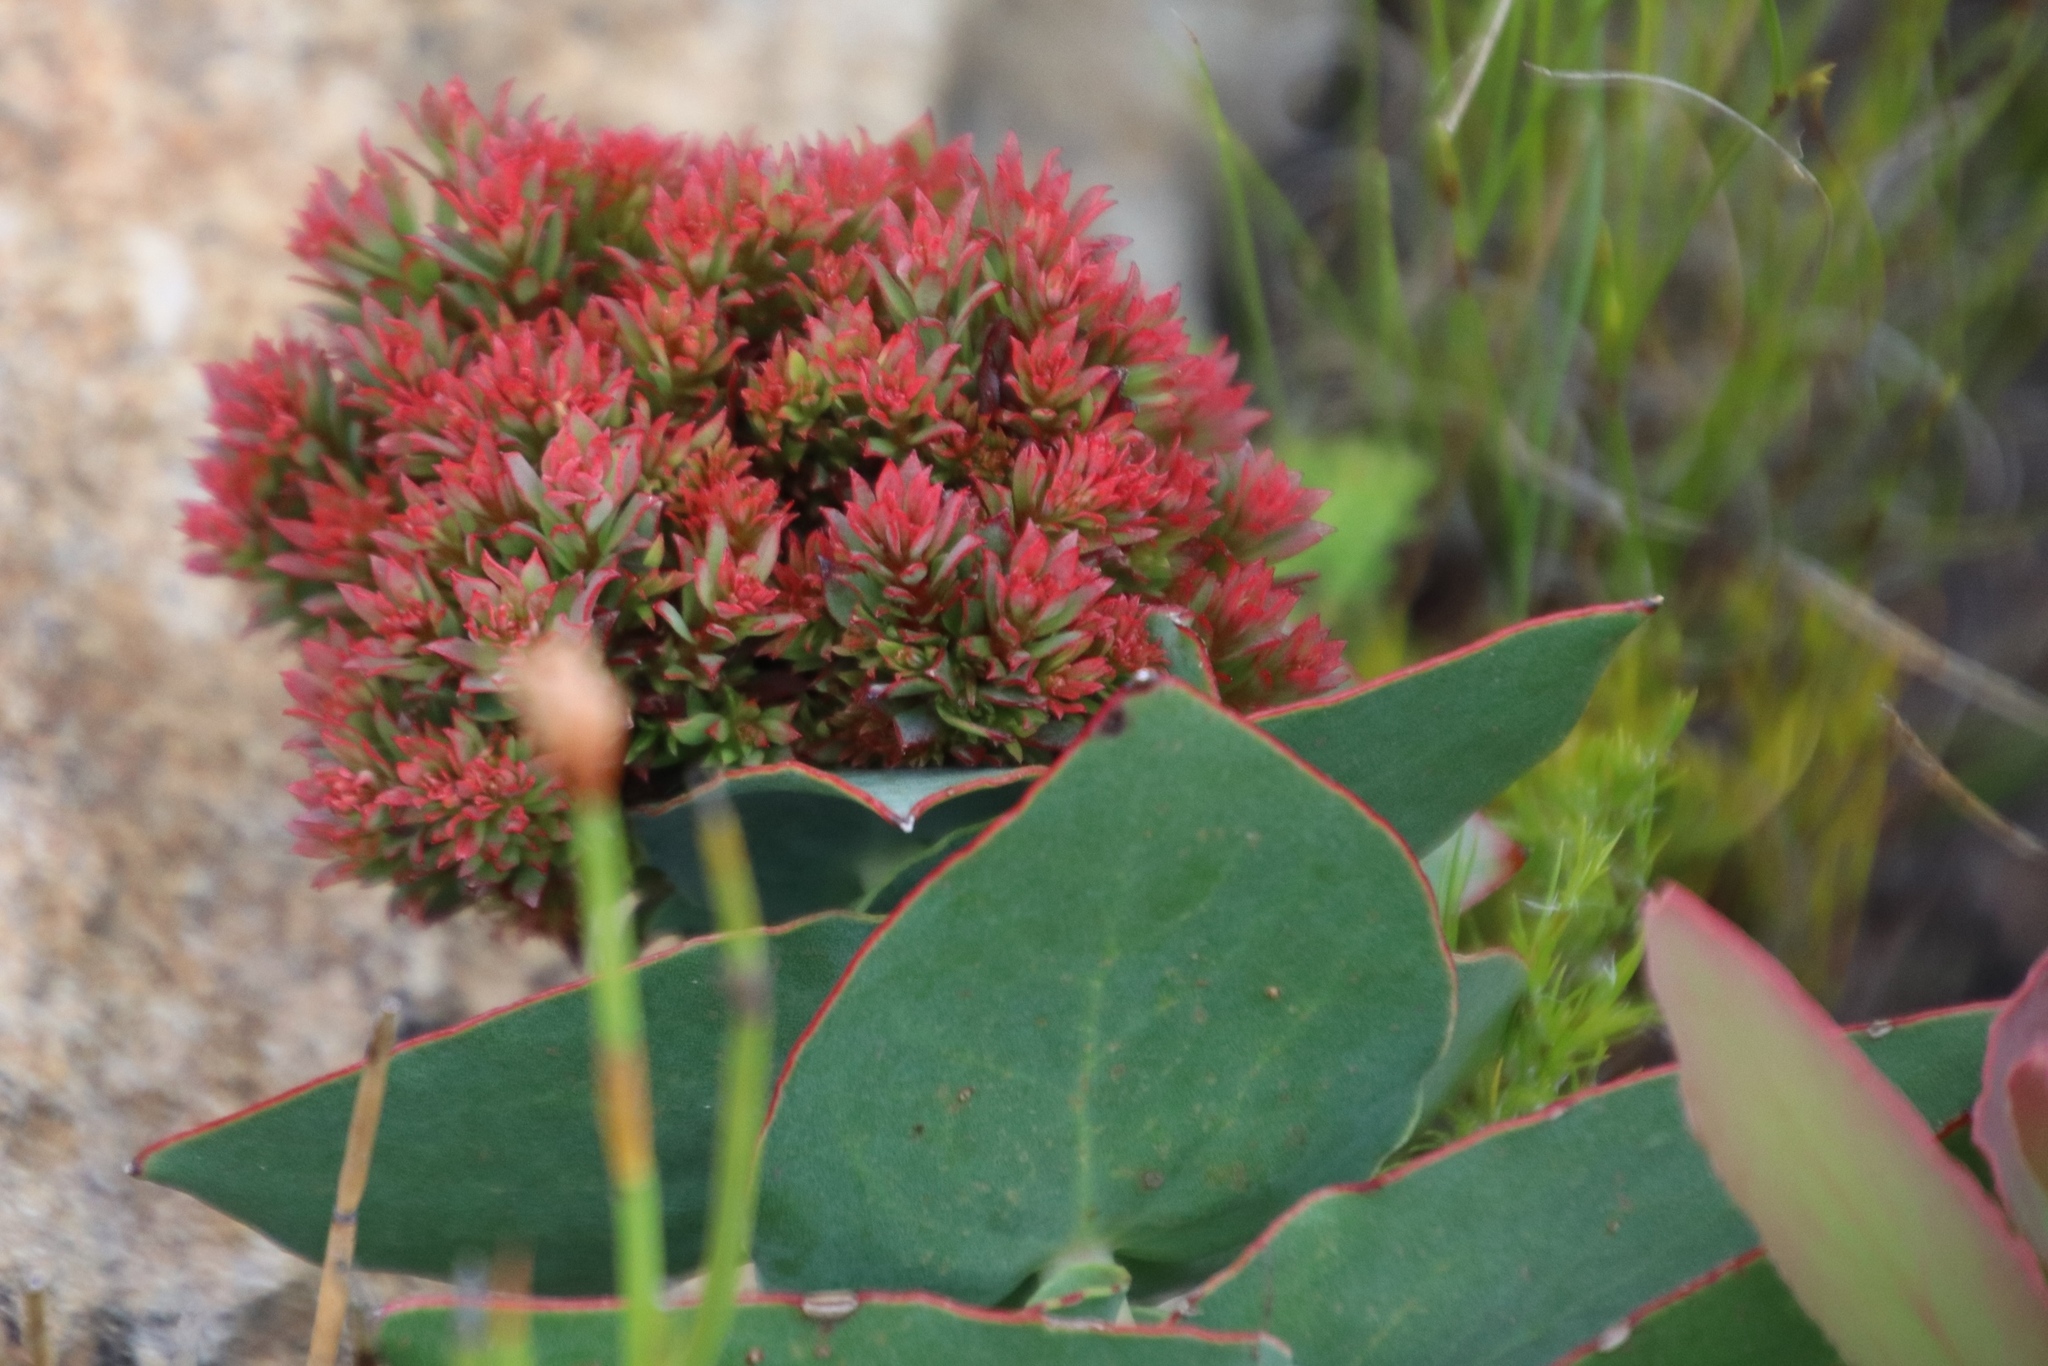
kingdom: Bacteria
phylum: Firmicutes
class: Bacilli
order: Acholeplasmatales
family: Acholeplasmataceae
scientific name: Acholeplasmataceae
